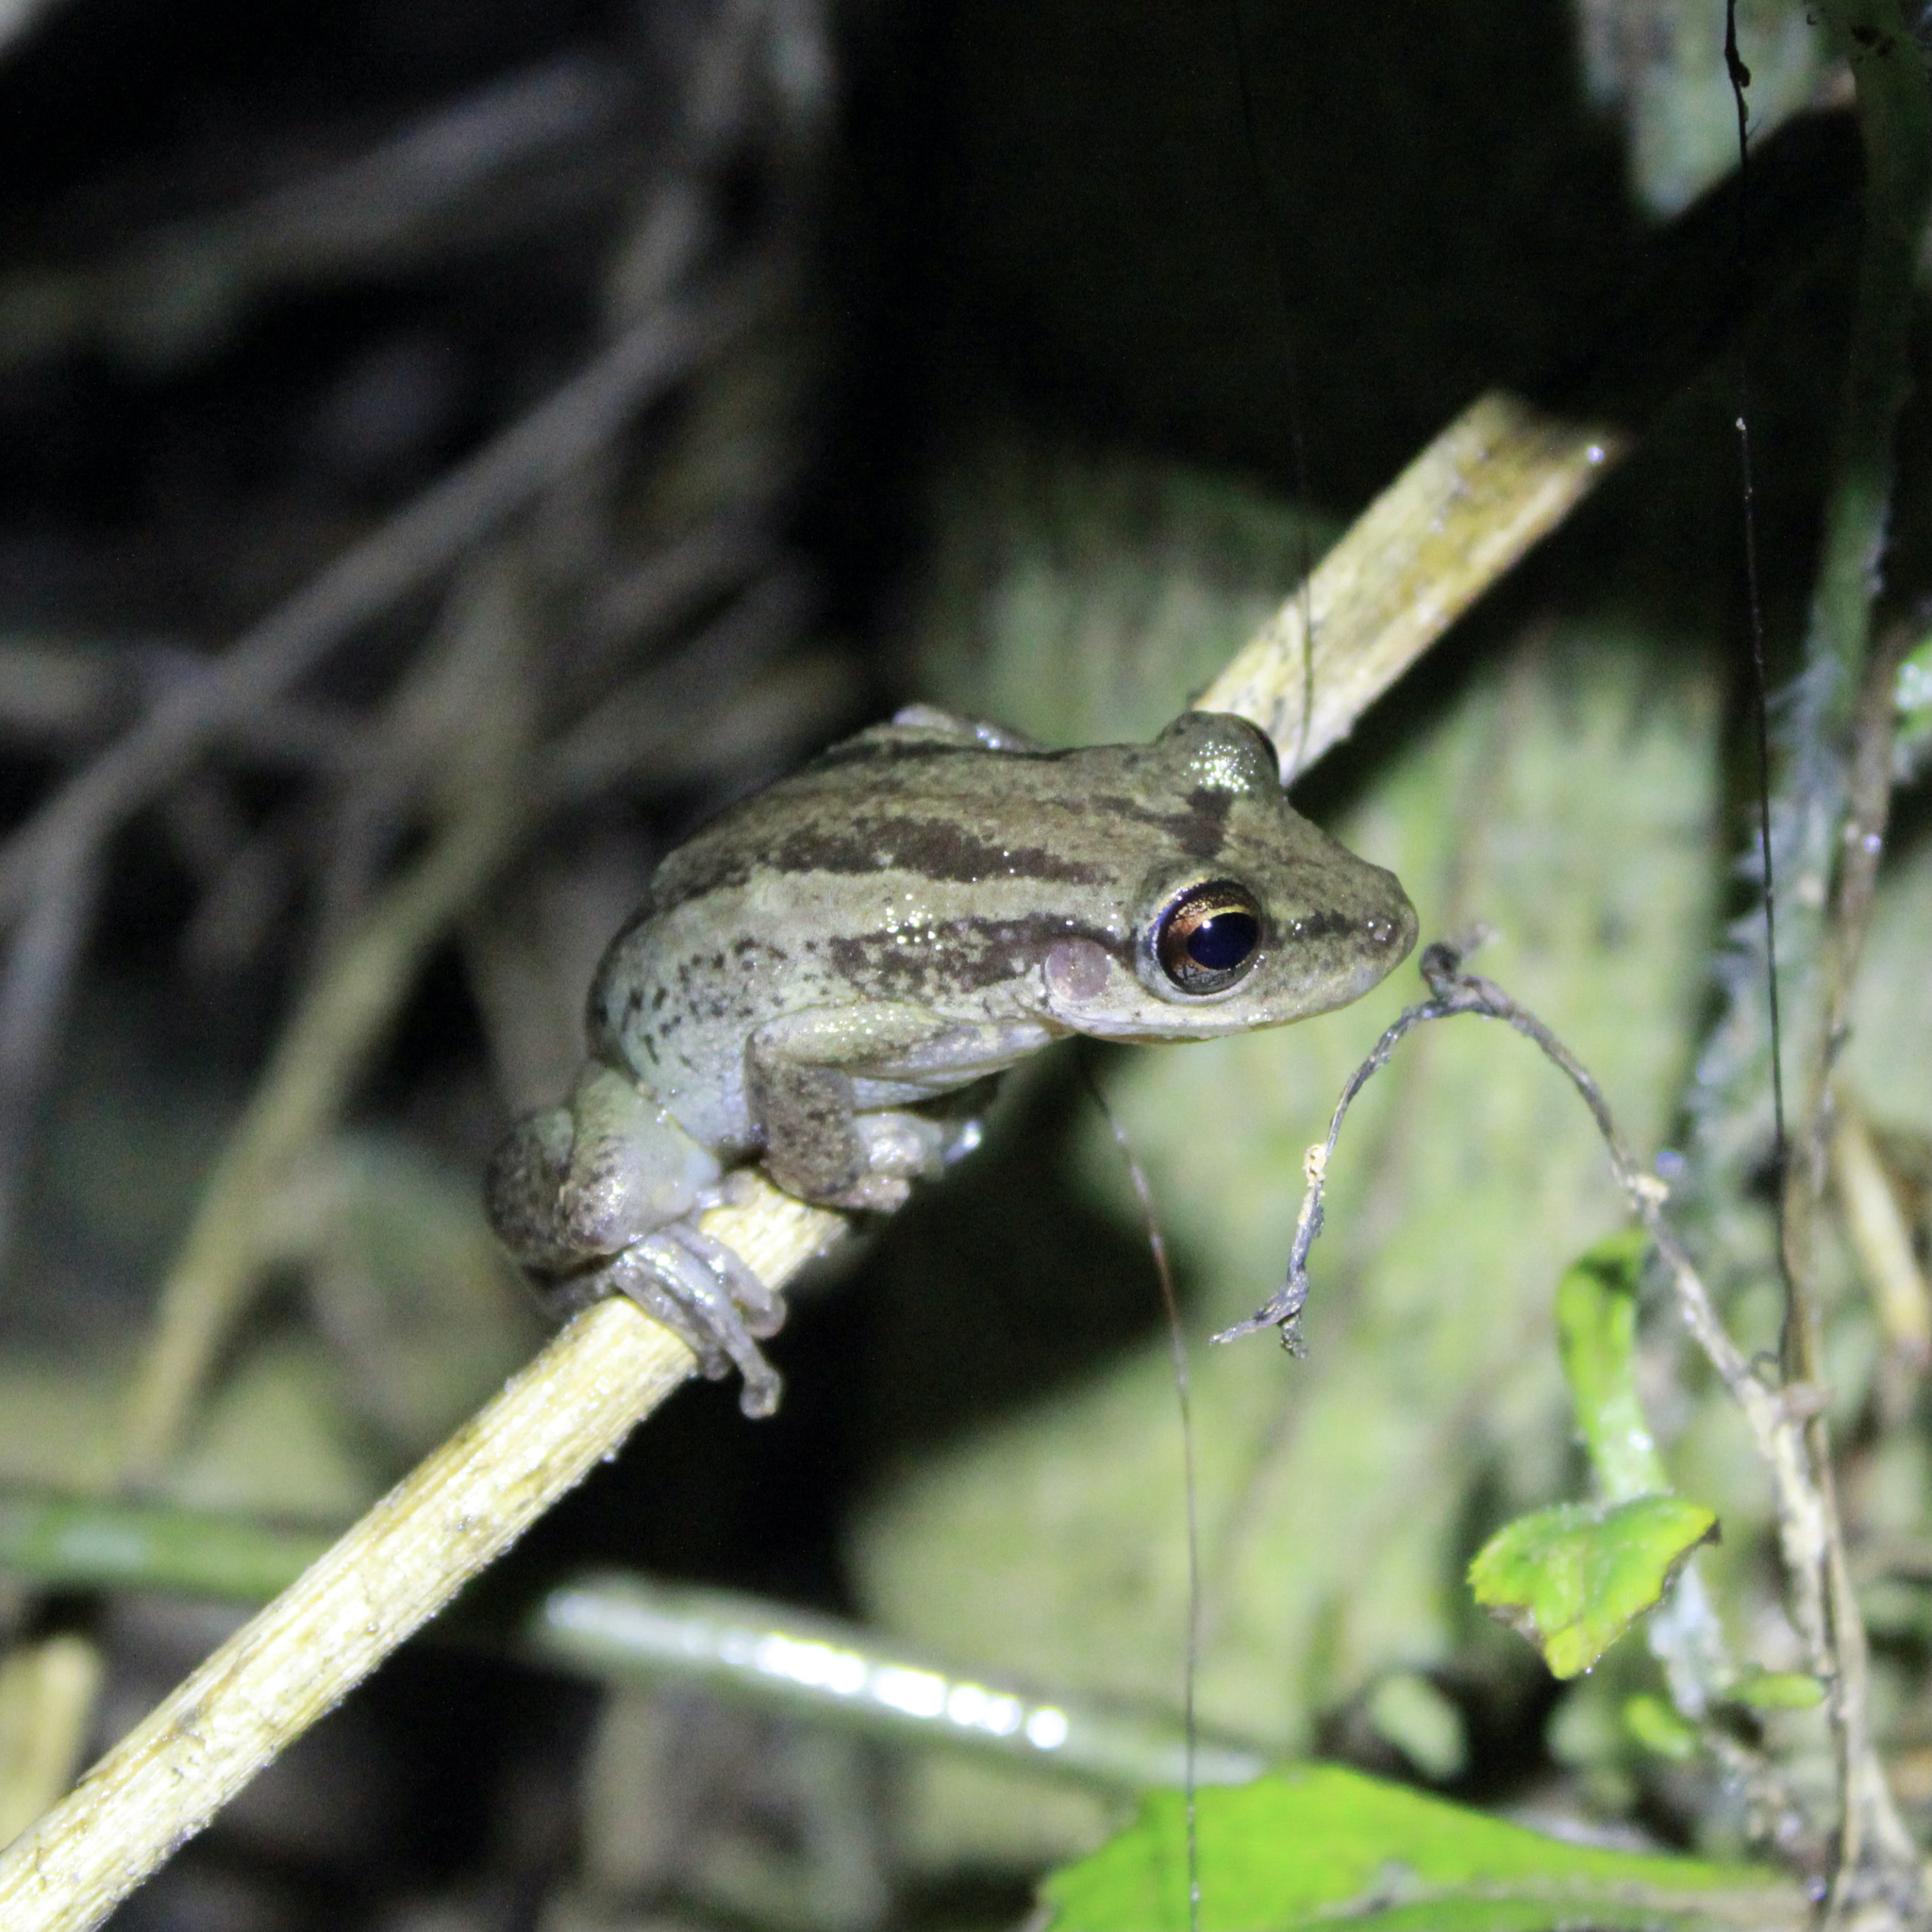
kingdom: Animalia
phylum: Chordata
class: Amphibia
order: Anura
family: Hylidae
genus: Scinax
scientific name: Scinax ruber
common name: Red snouted treefrog
